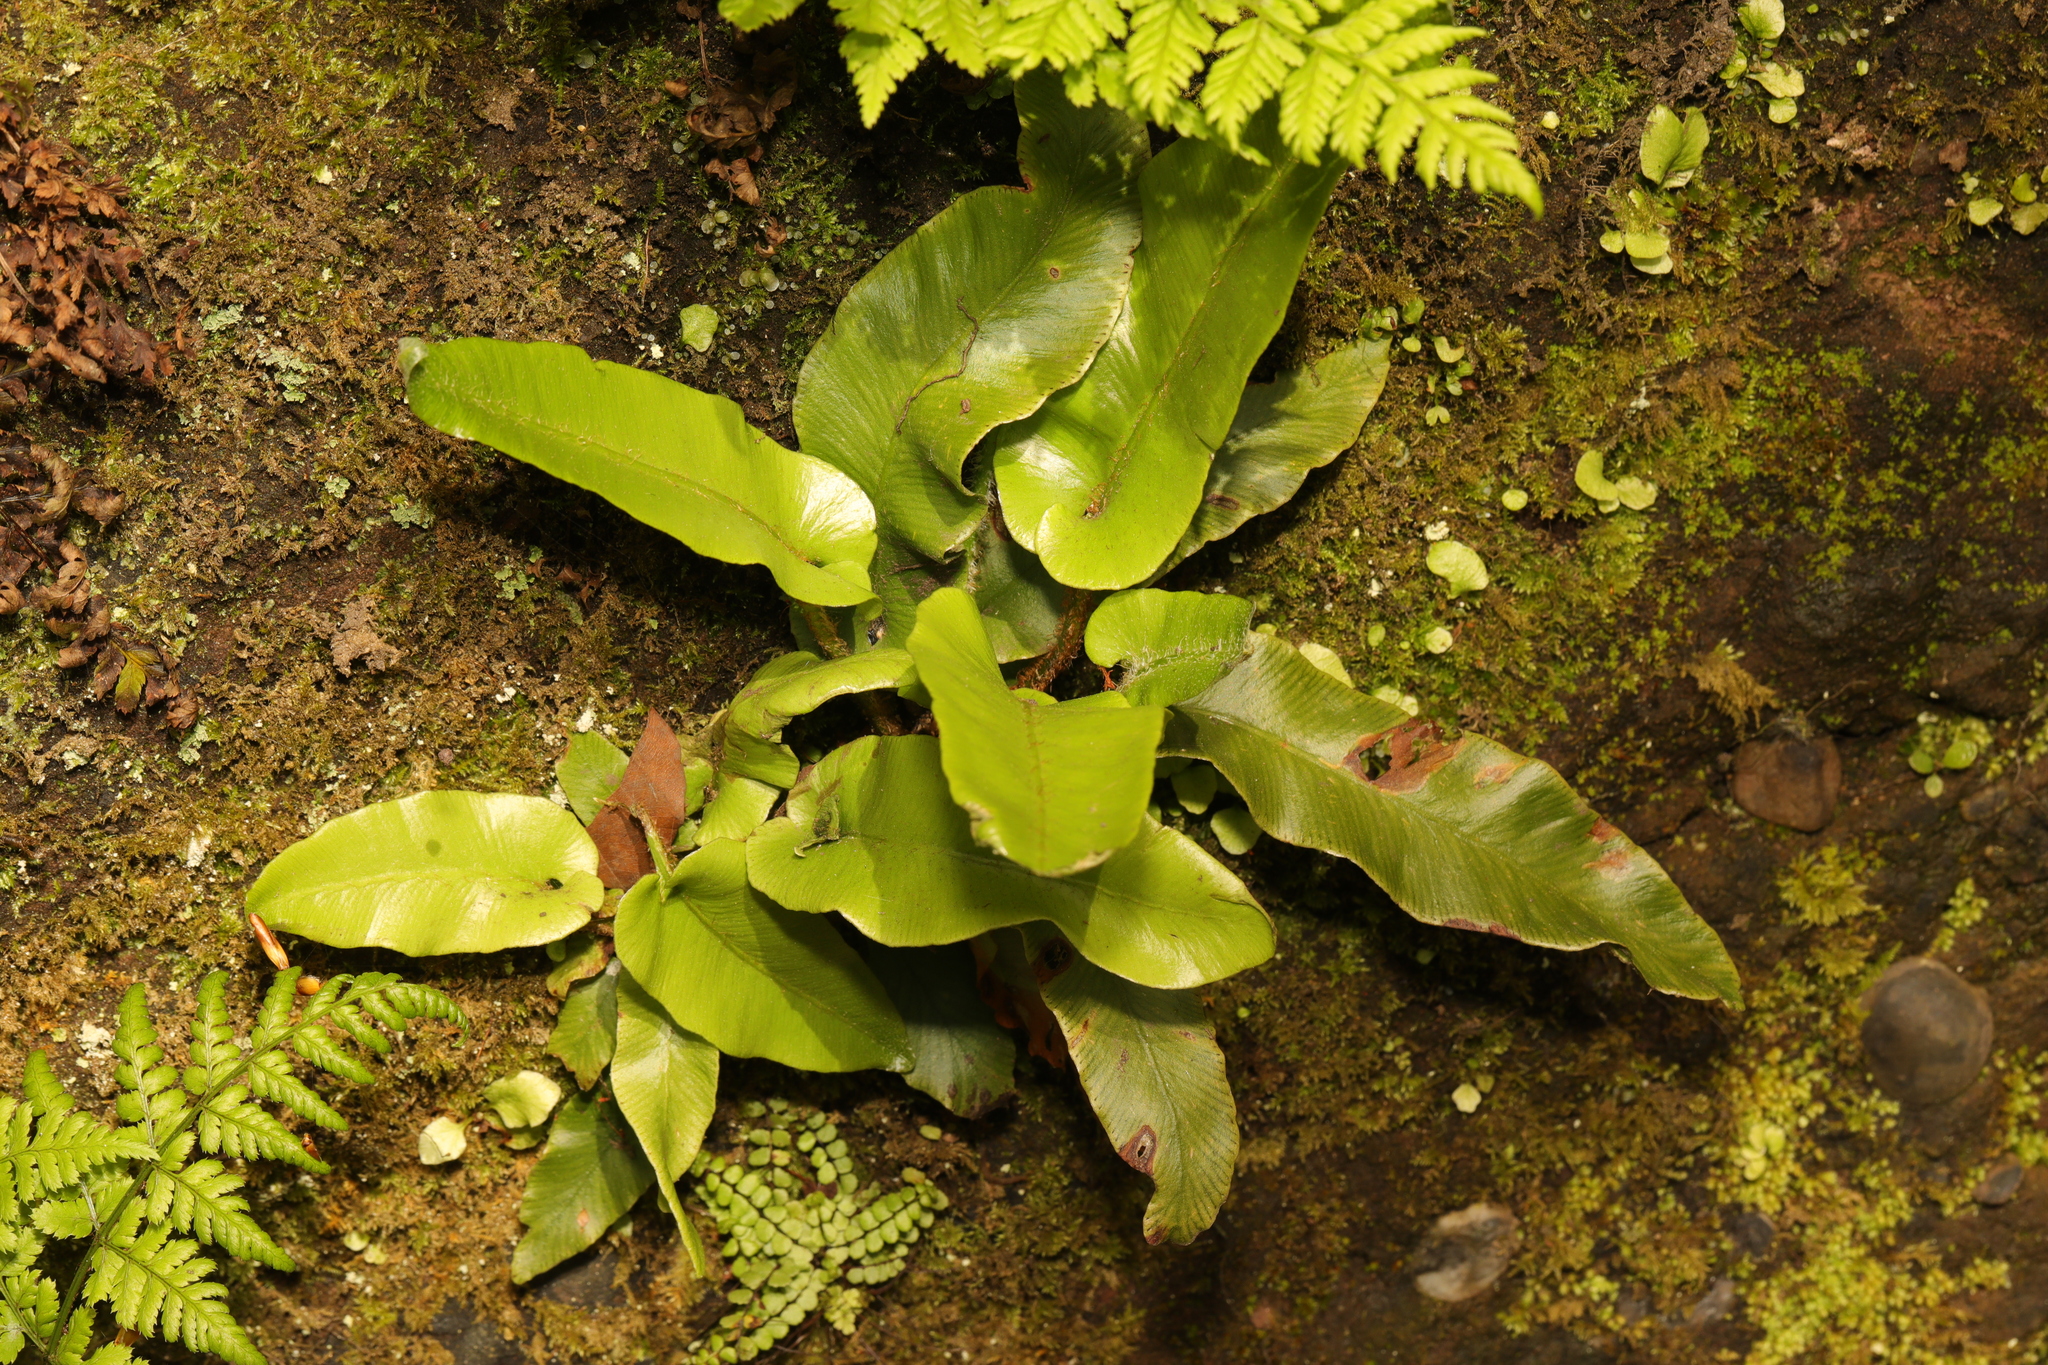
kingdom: Plantae
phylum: Tracheophyta
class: Polypodiopsida
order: Polypodiales
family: Aspleniaceae
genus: Asplenium
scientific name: Asplenium scolopendrium
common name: Hart's-tongue fern
